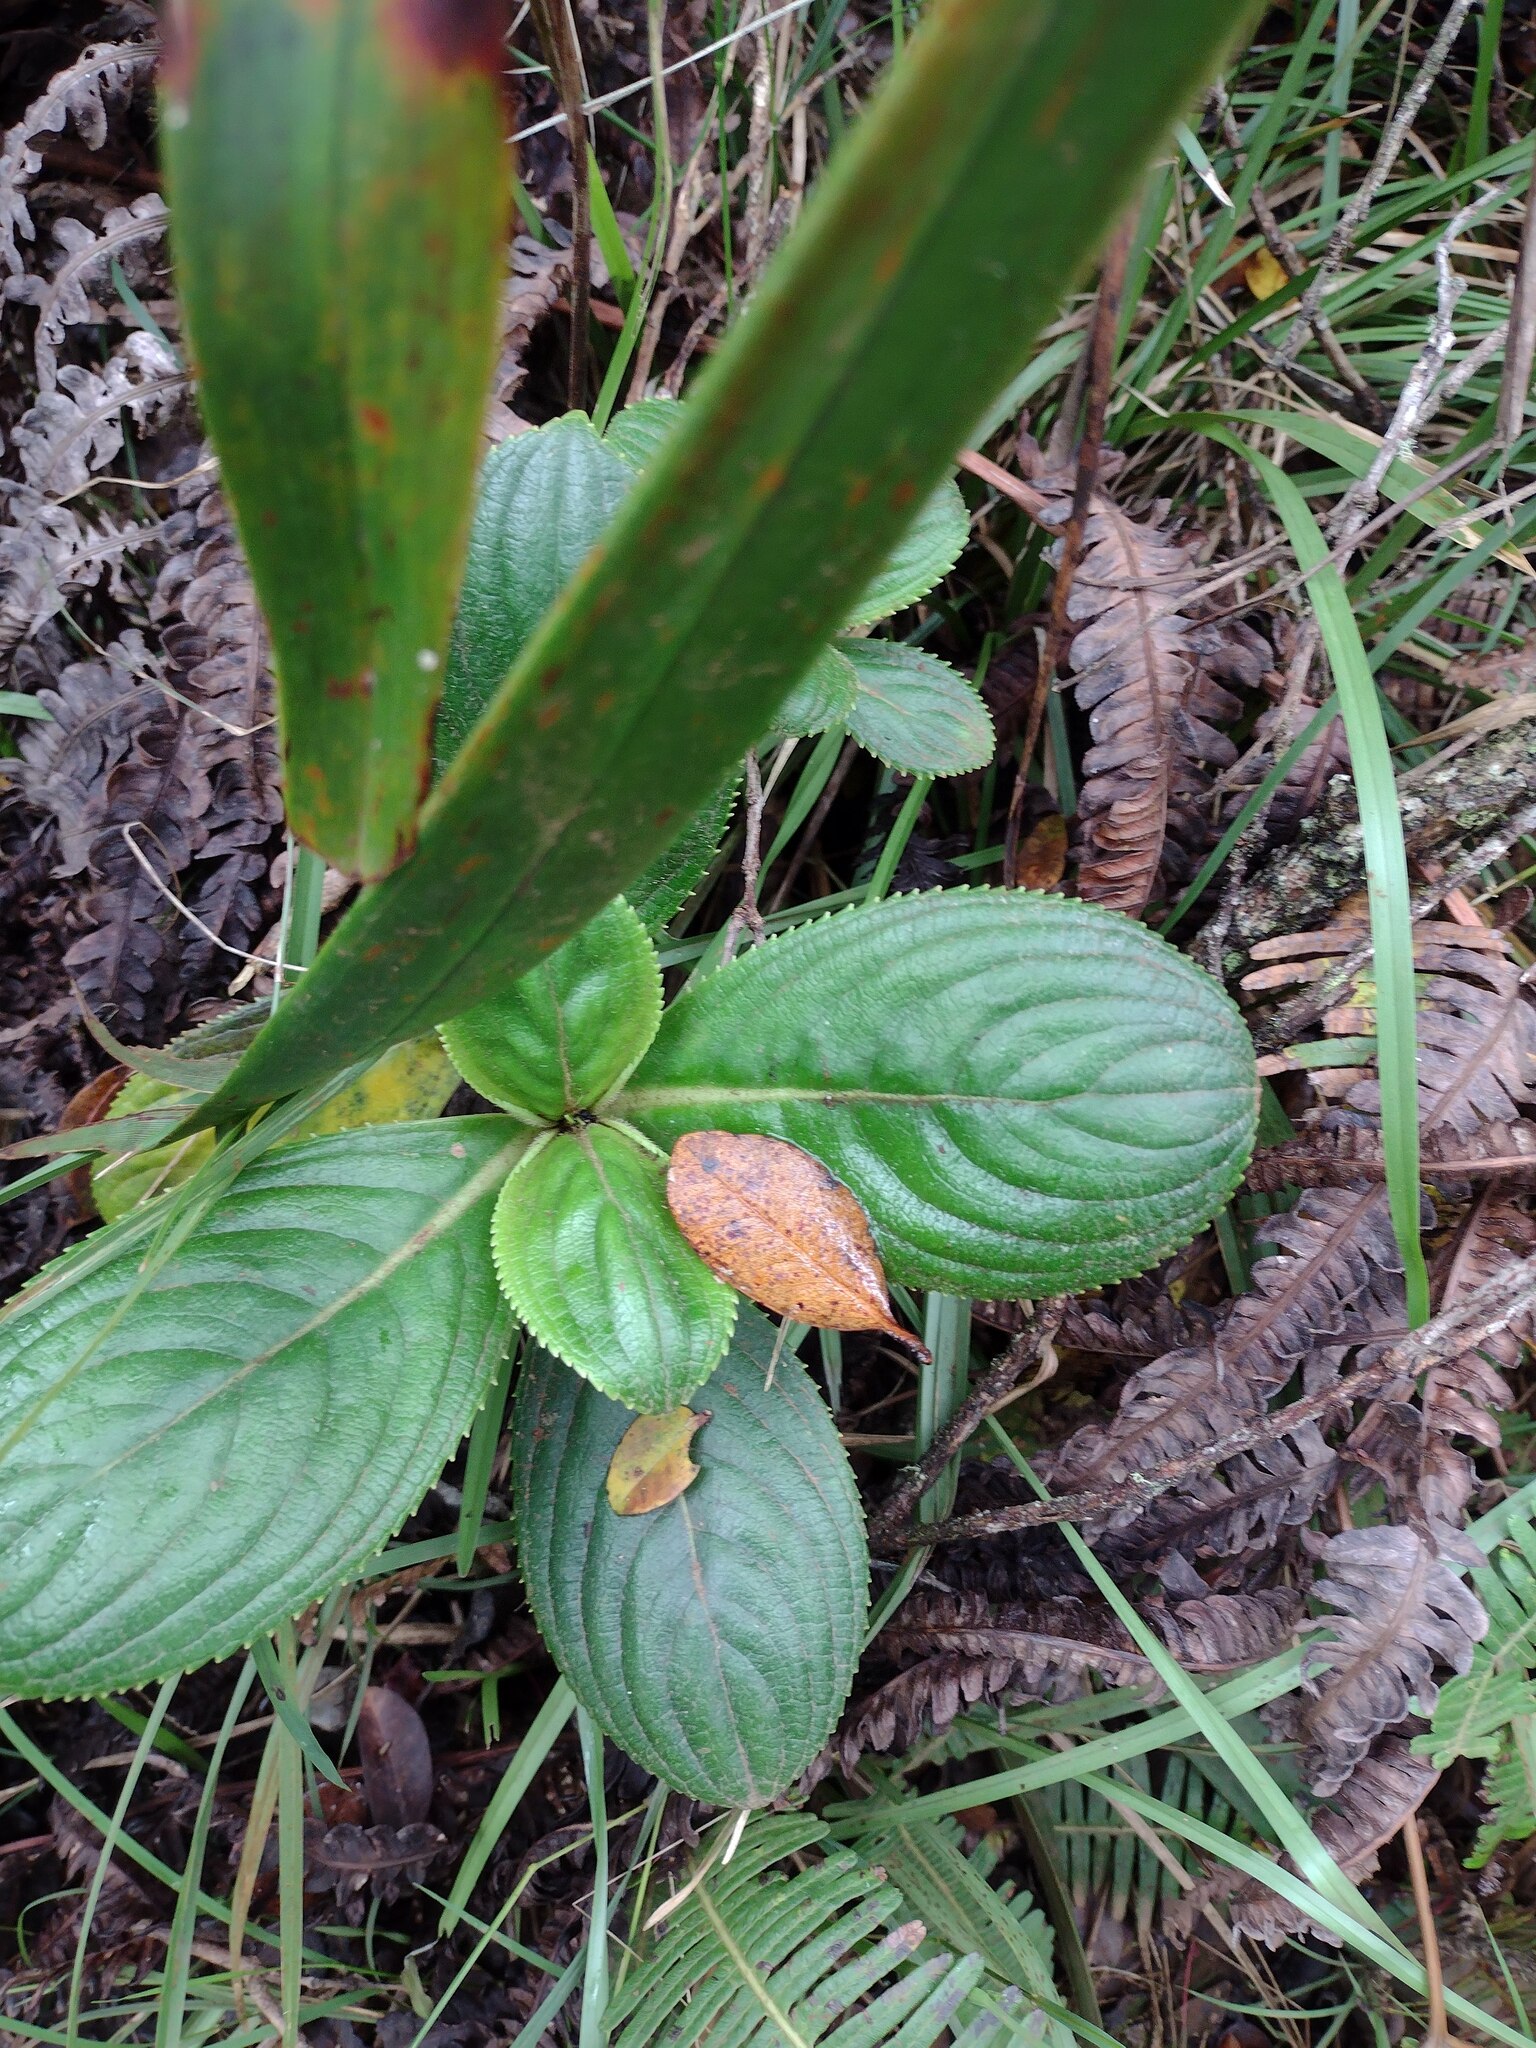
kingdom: Plantae
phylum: Tracheophyta
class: Magnoliopsida
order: Cornales
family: Hydrangeaceae
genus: Hydrangea
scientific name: Hydrangea arguta
